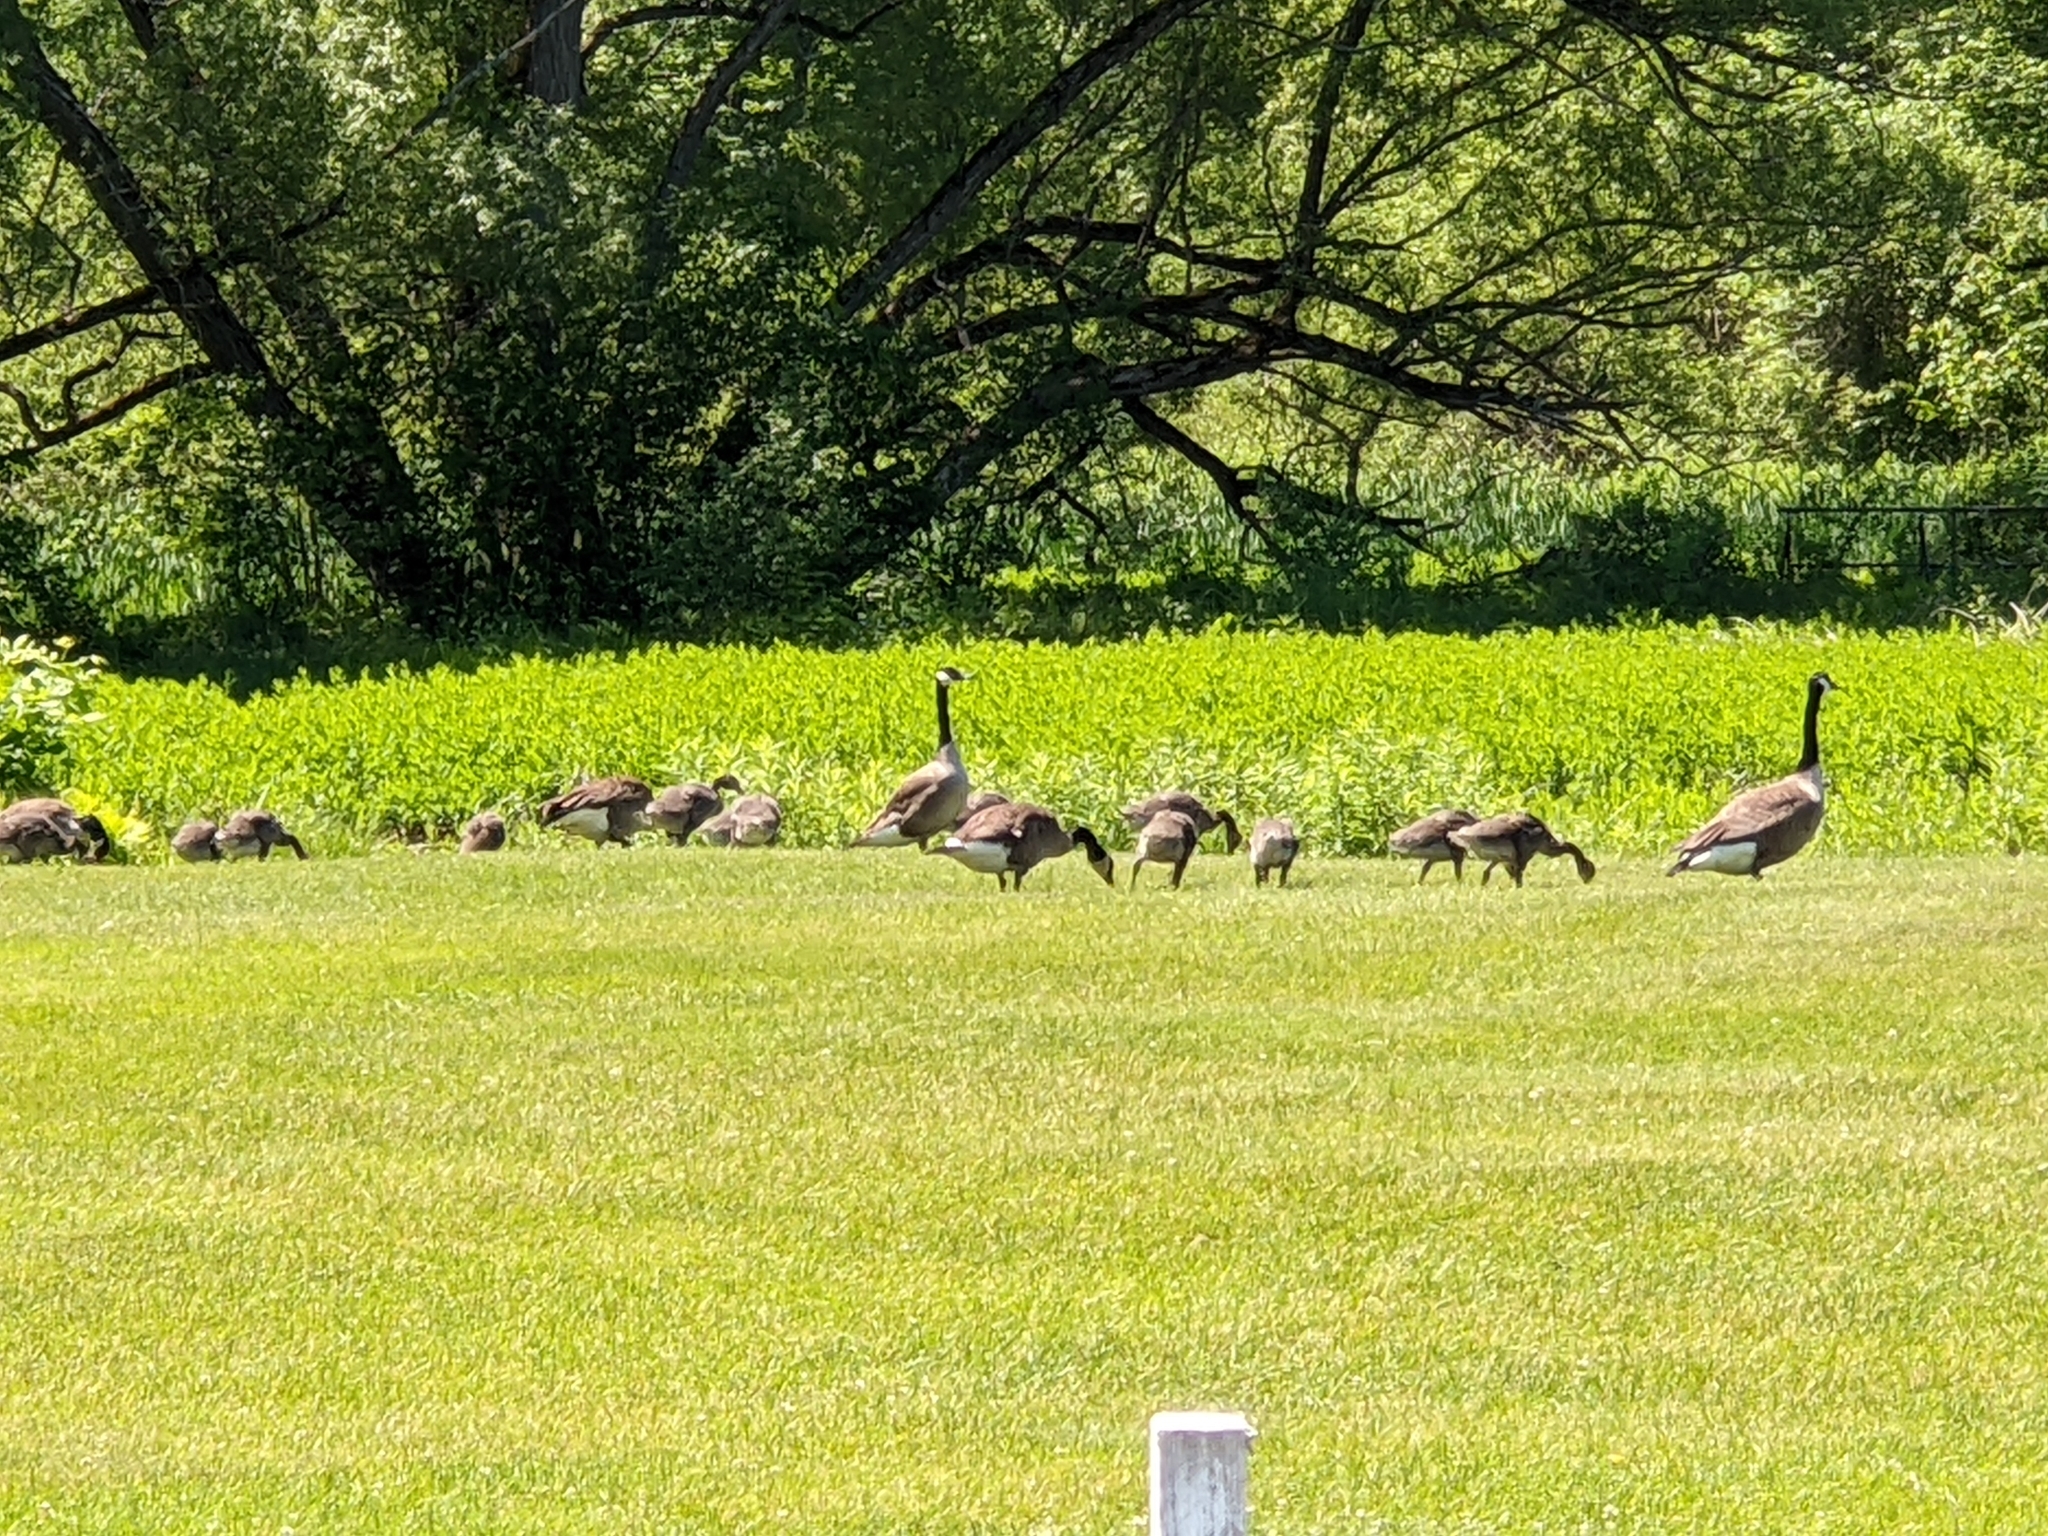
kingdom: Animalia
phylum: Chordata
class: Aves
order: Anseriformes
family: Anatidae
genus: Branta
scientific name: Branta canadensis
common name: Canada goose
